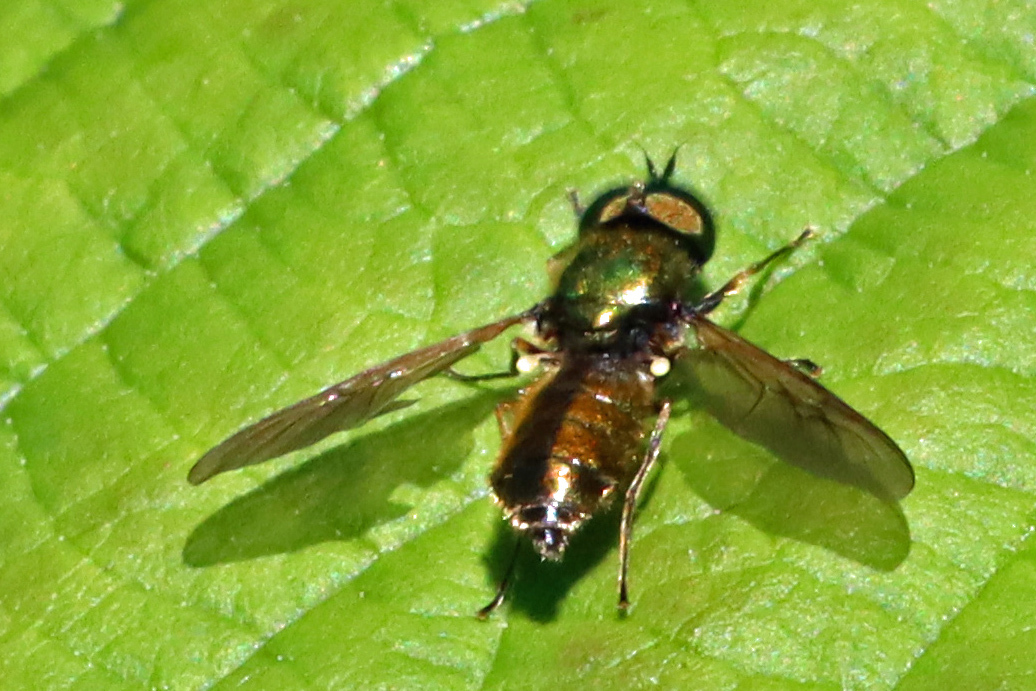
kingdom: Animalia
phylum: Arthropoda
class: Insecta
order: Diptera
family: Stratiomyidae
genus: Chloromyia
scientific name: Chloromyia formosa
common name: Soldier fly
